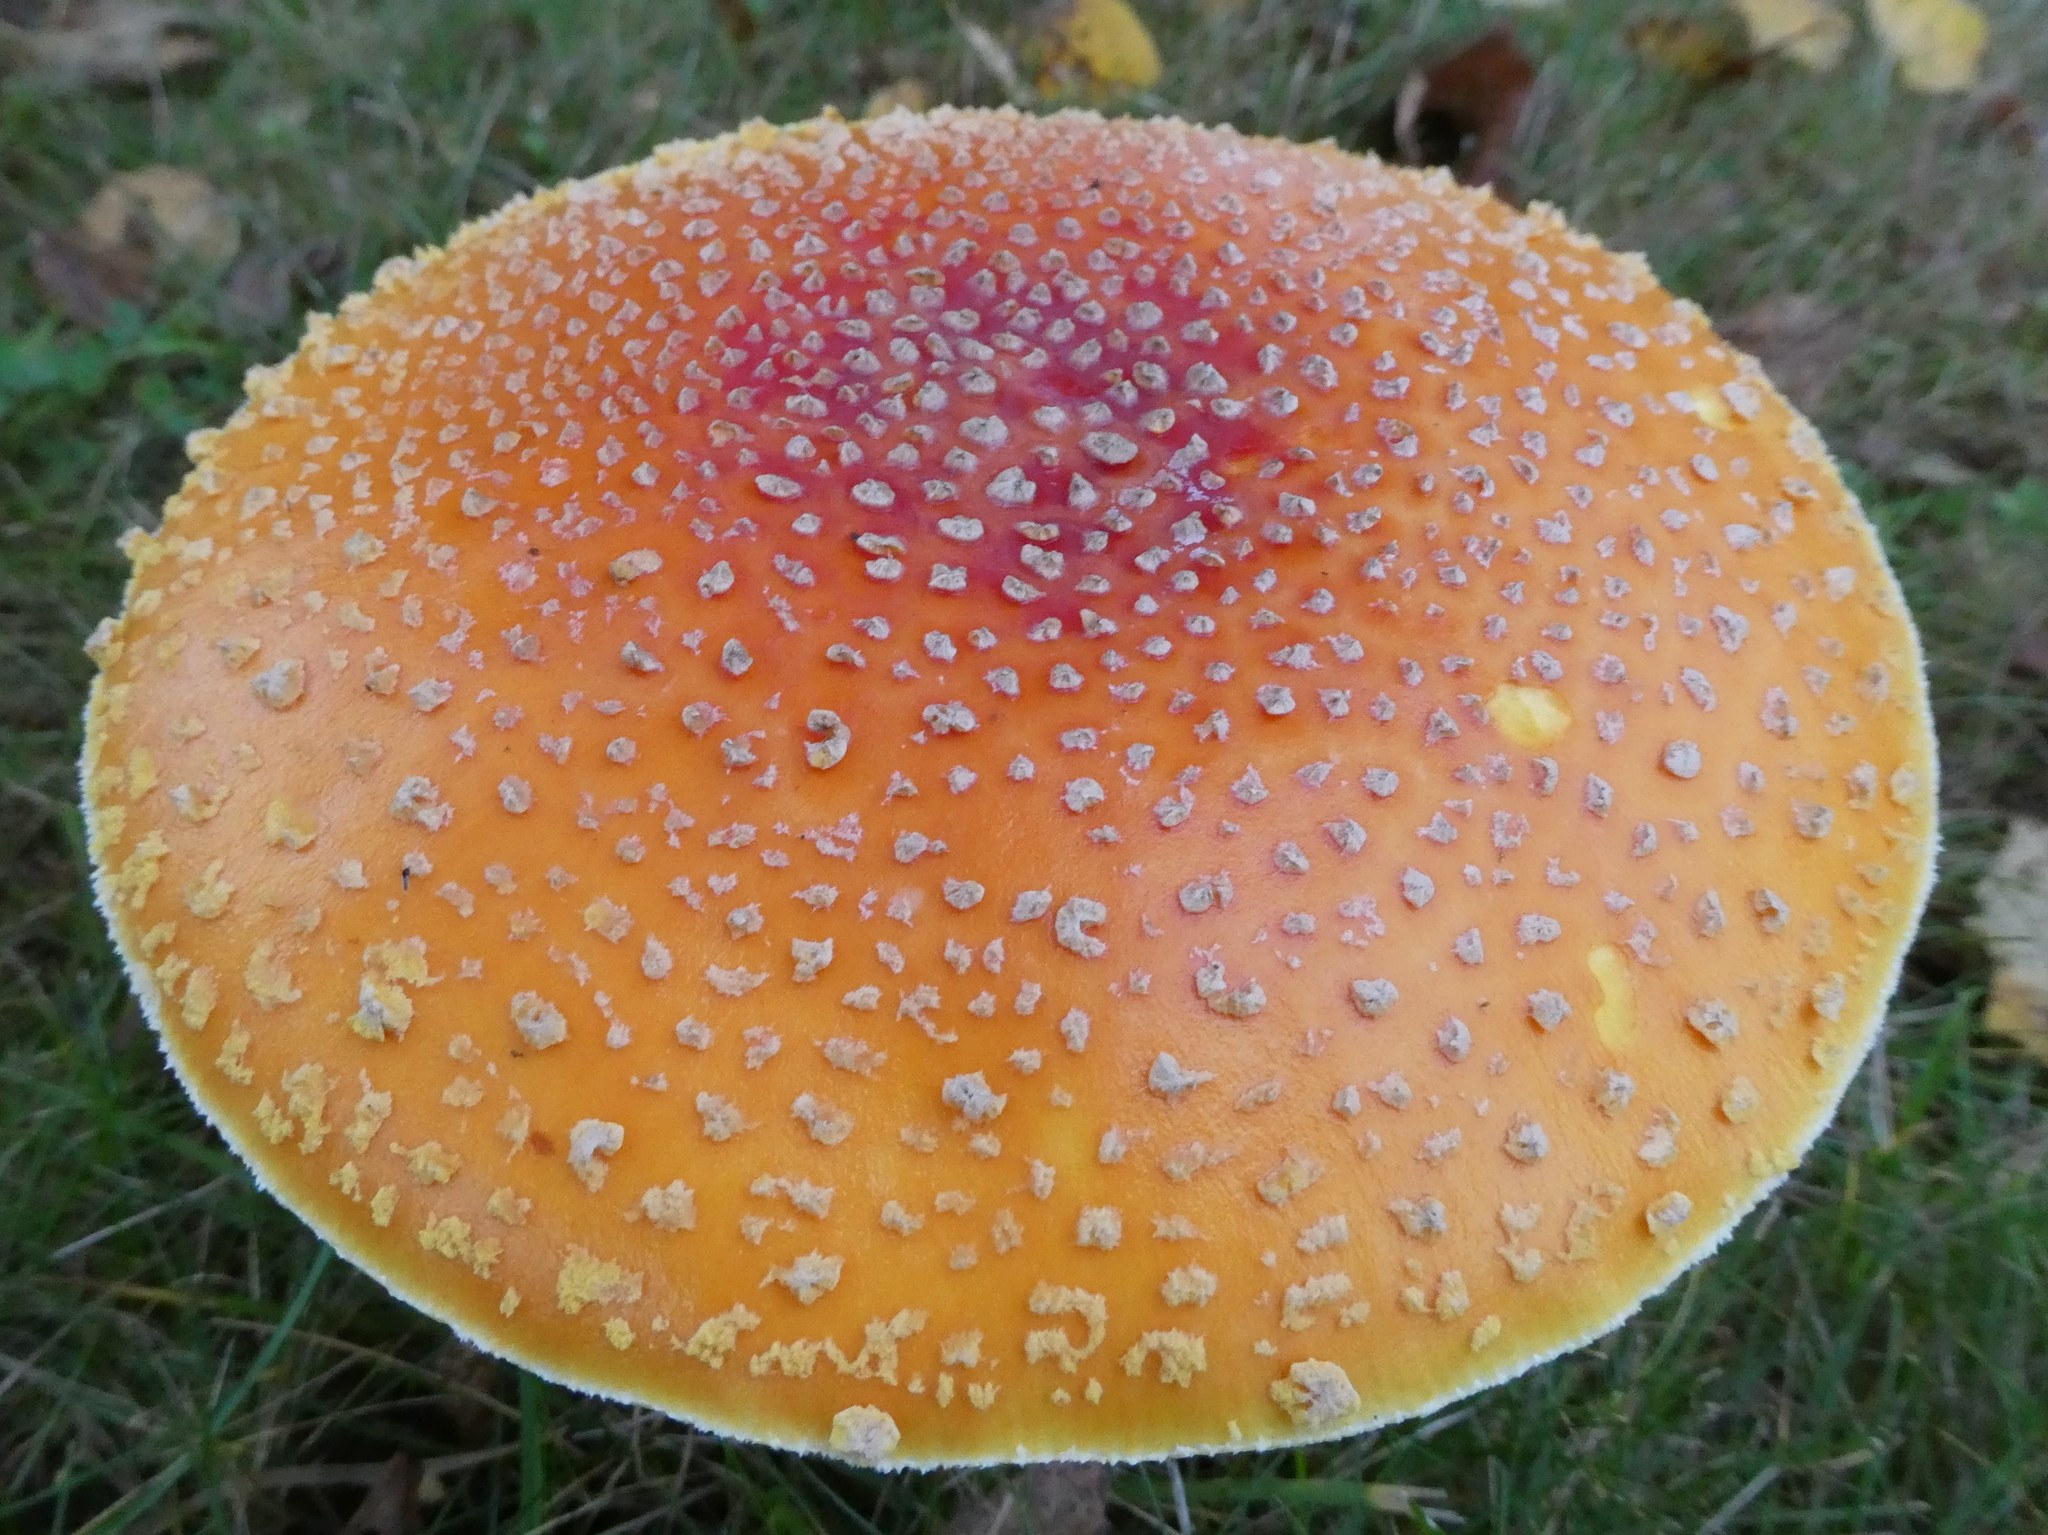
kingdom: Fungi
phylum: Basidiomycota
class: Agaricomycetes
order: Agaricales
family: Amanitaceae
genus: Amanita
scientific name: Amanita muscaria
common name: Fly agaric
